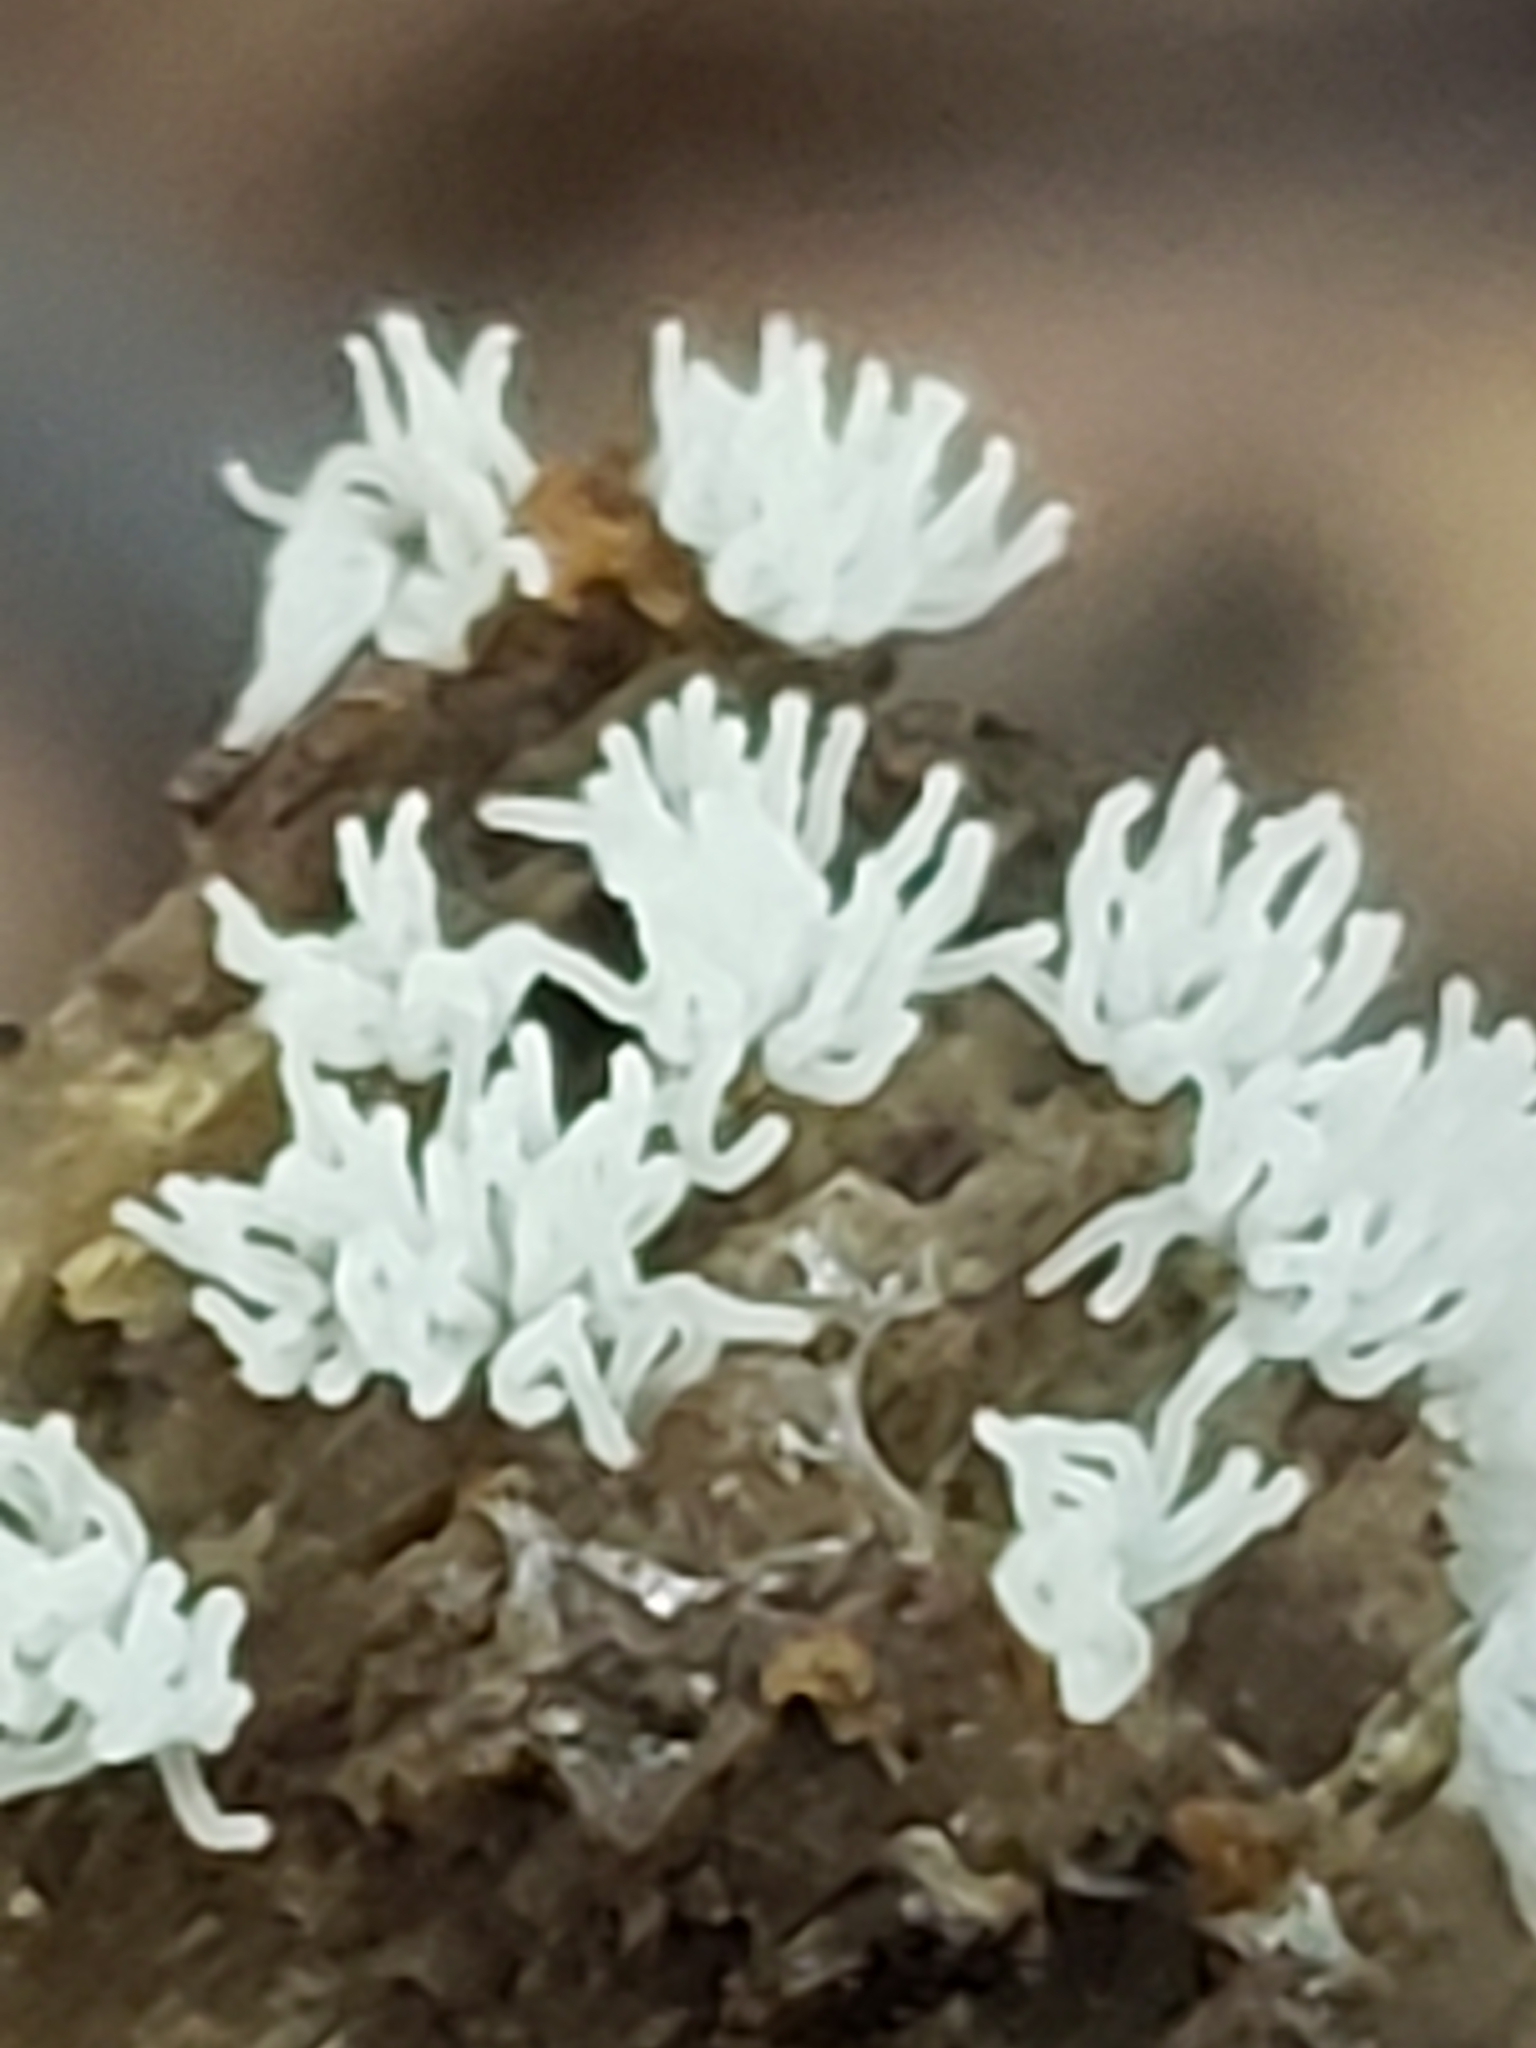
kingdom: Protozoa
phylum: Mycetozoa
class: Protosteliomycetes
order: Ceratiomyxales
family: Ceratiomyxaceae
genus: Ceratiomyxa
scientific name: Ceratiomyxa fruticulosa
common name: Honeycomb coral slime mold
